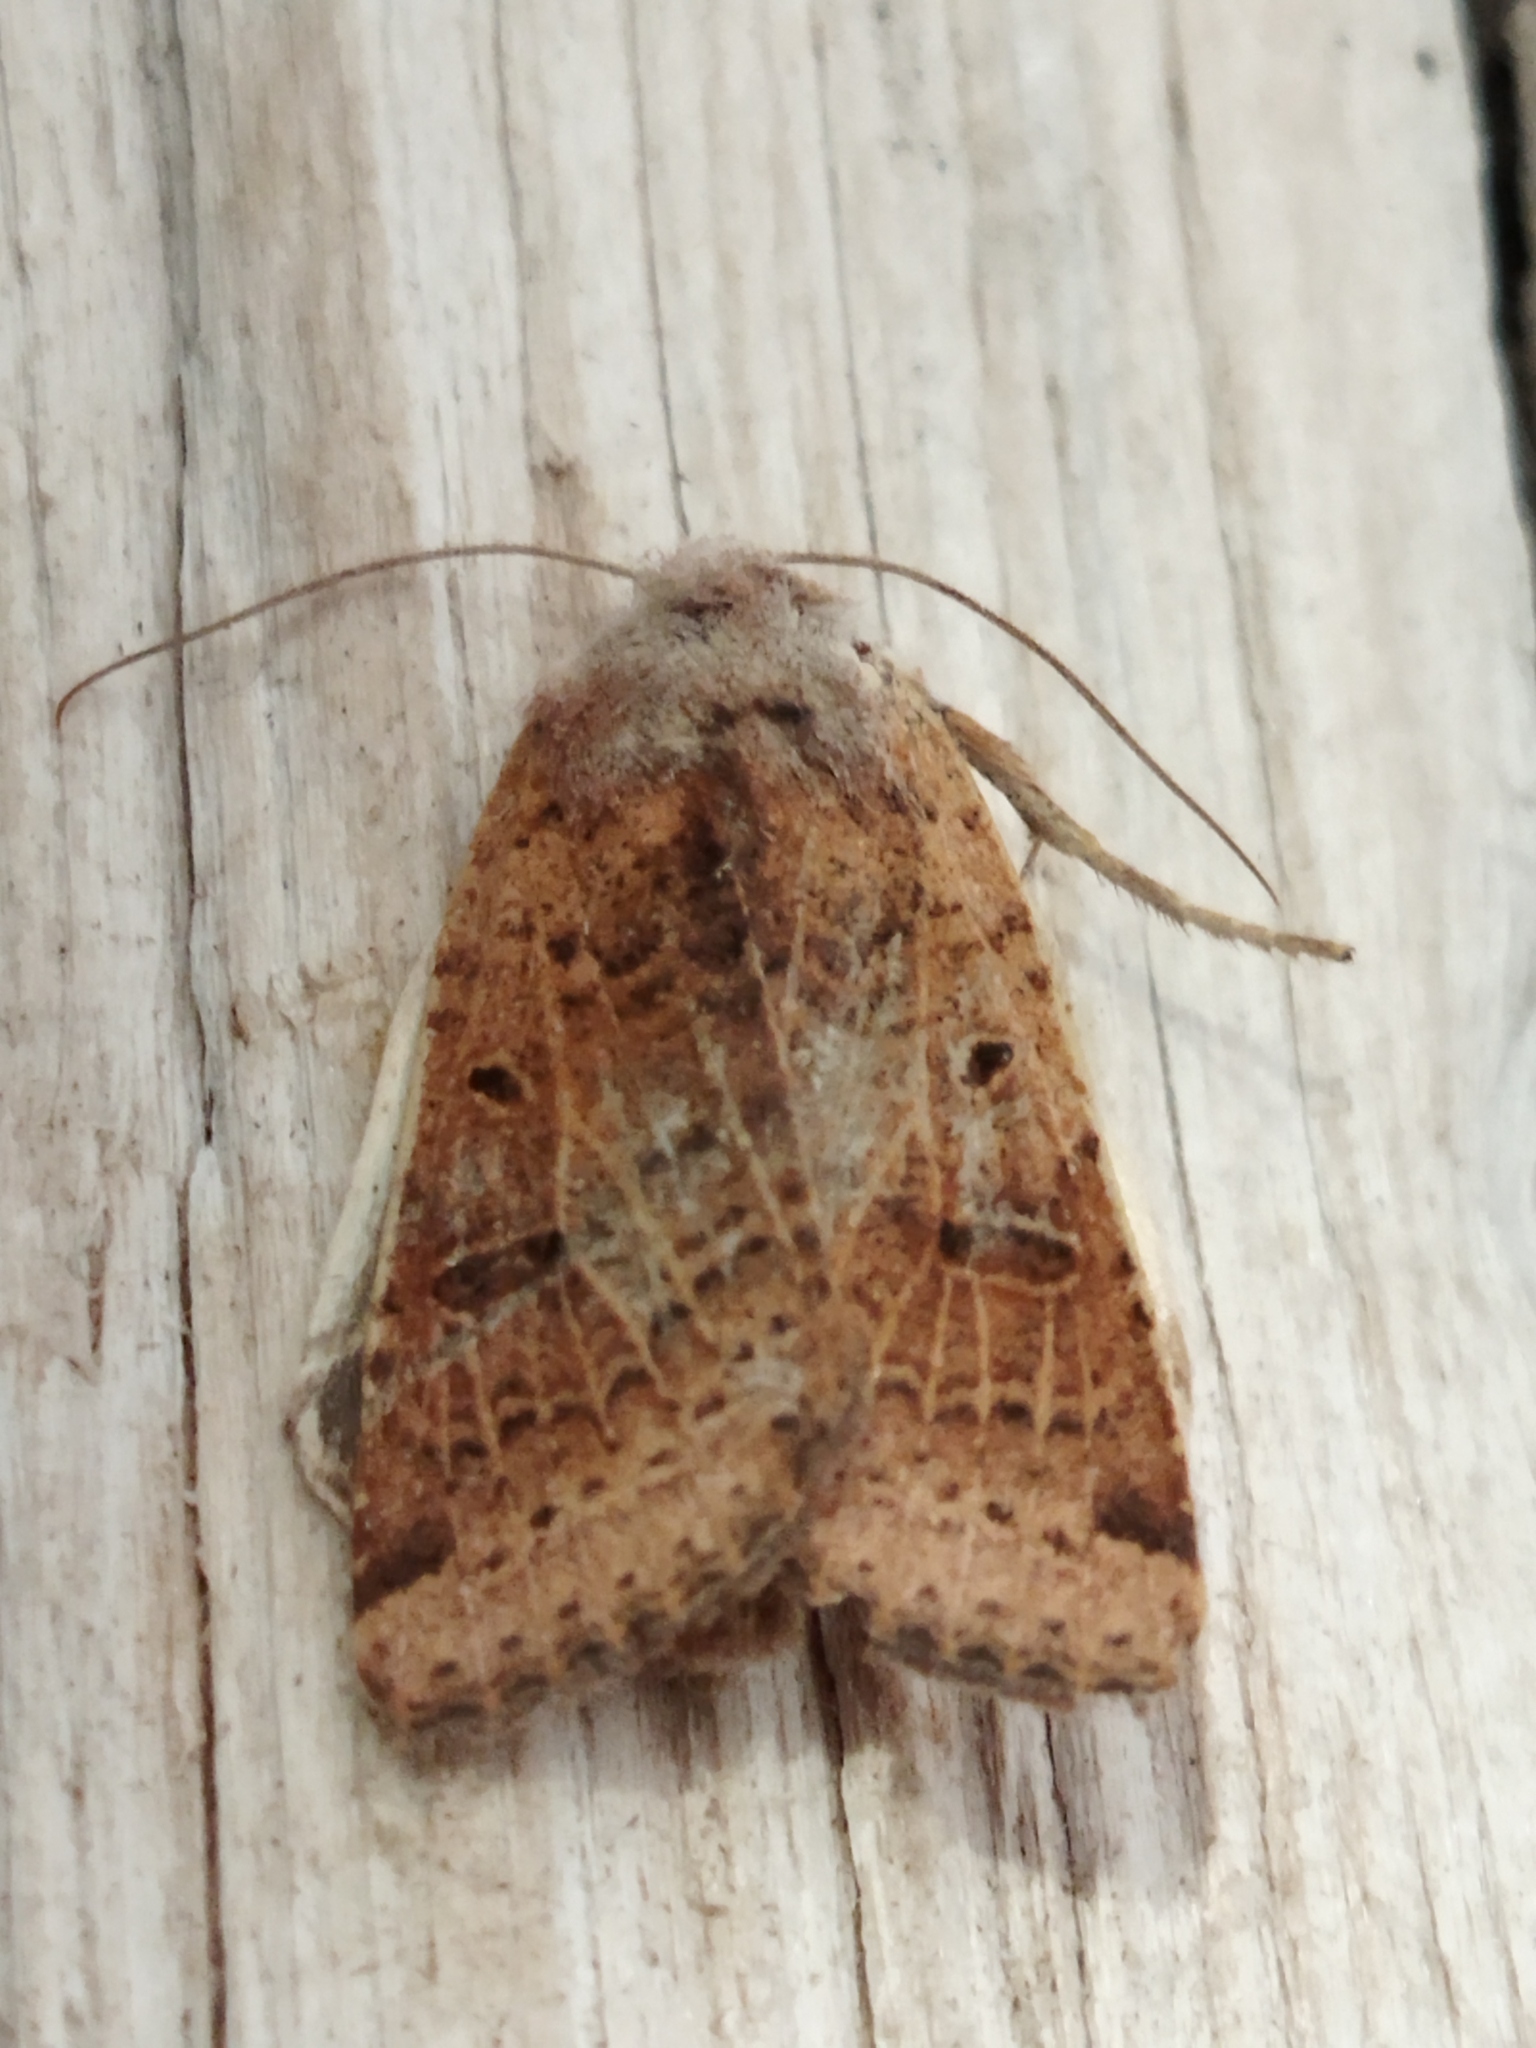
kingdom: Animalia
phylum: Arthropoda
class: Insecta
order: Lepidoptera
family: Noctuidae
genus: Agrochola
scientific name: Agrochola lychnidis
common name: Beaded chestnut
